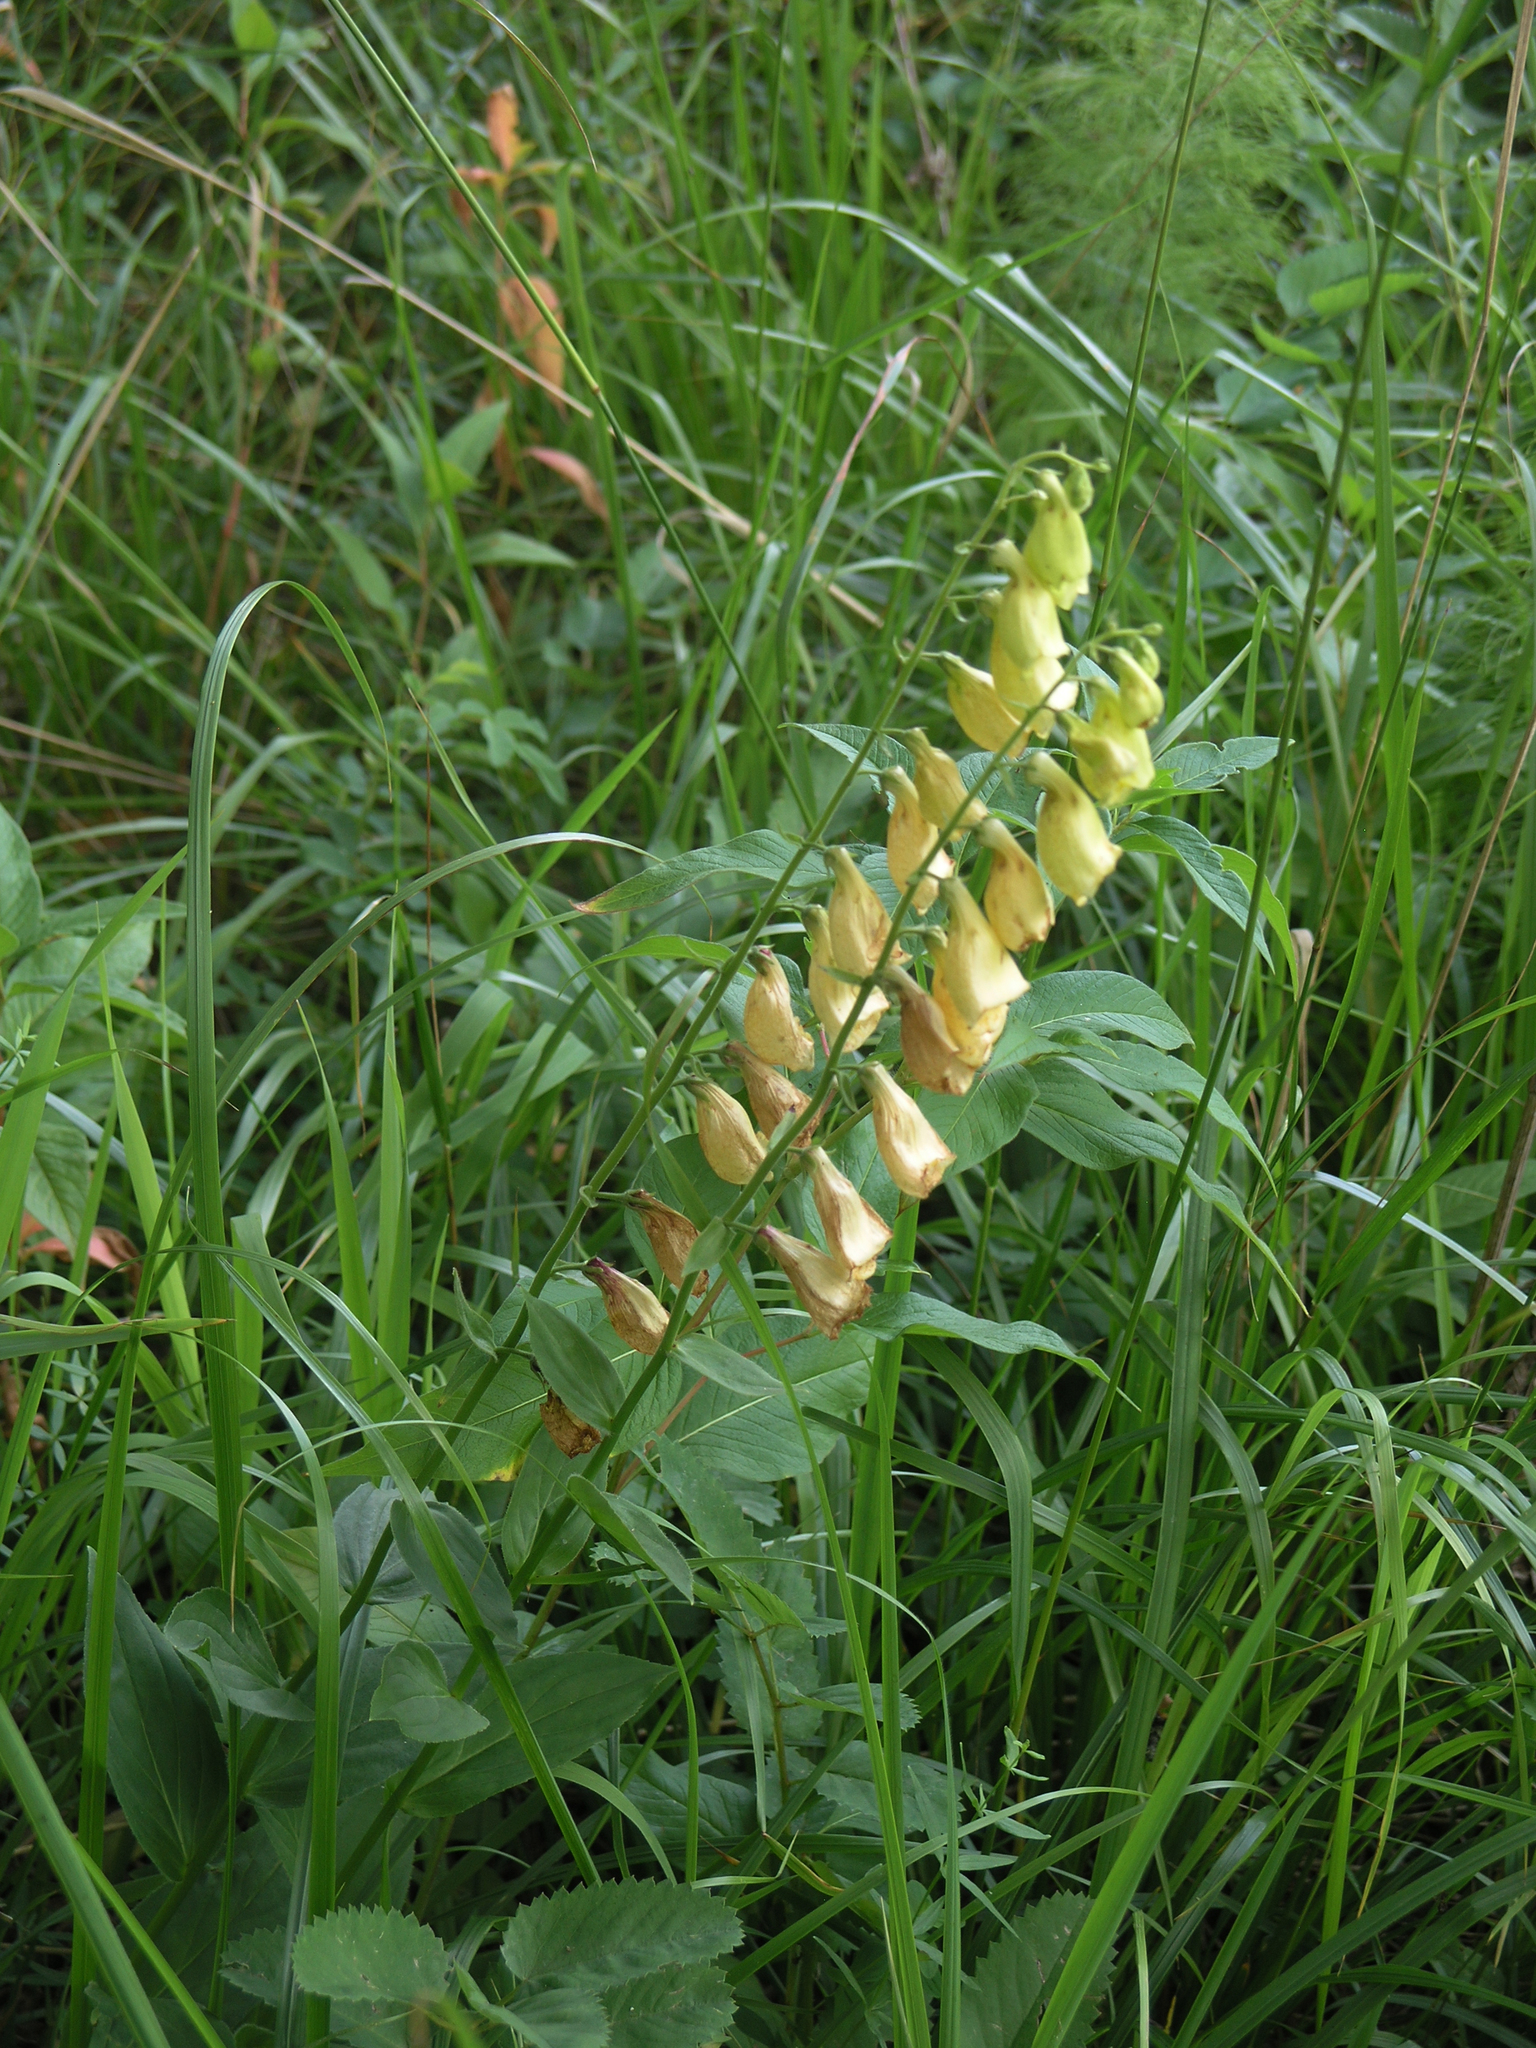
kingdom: Plantae
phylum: Tracheophyta
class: Magnoliopsida
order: Lamiales
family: Plantaginaceae
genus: Digitalis
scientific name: Digitalis grandiflora
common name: Yellow foxglove
